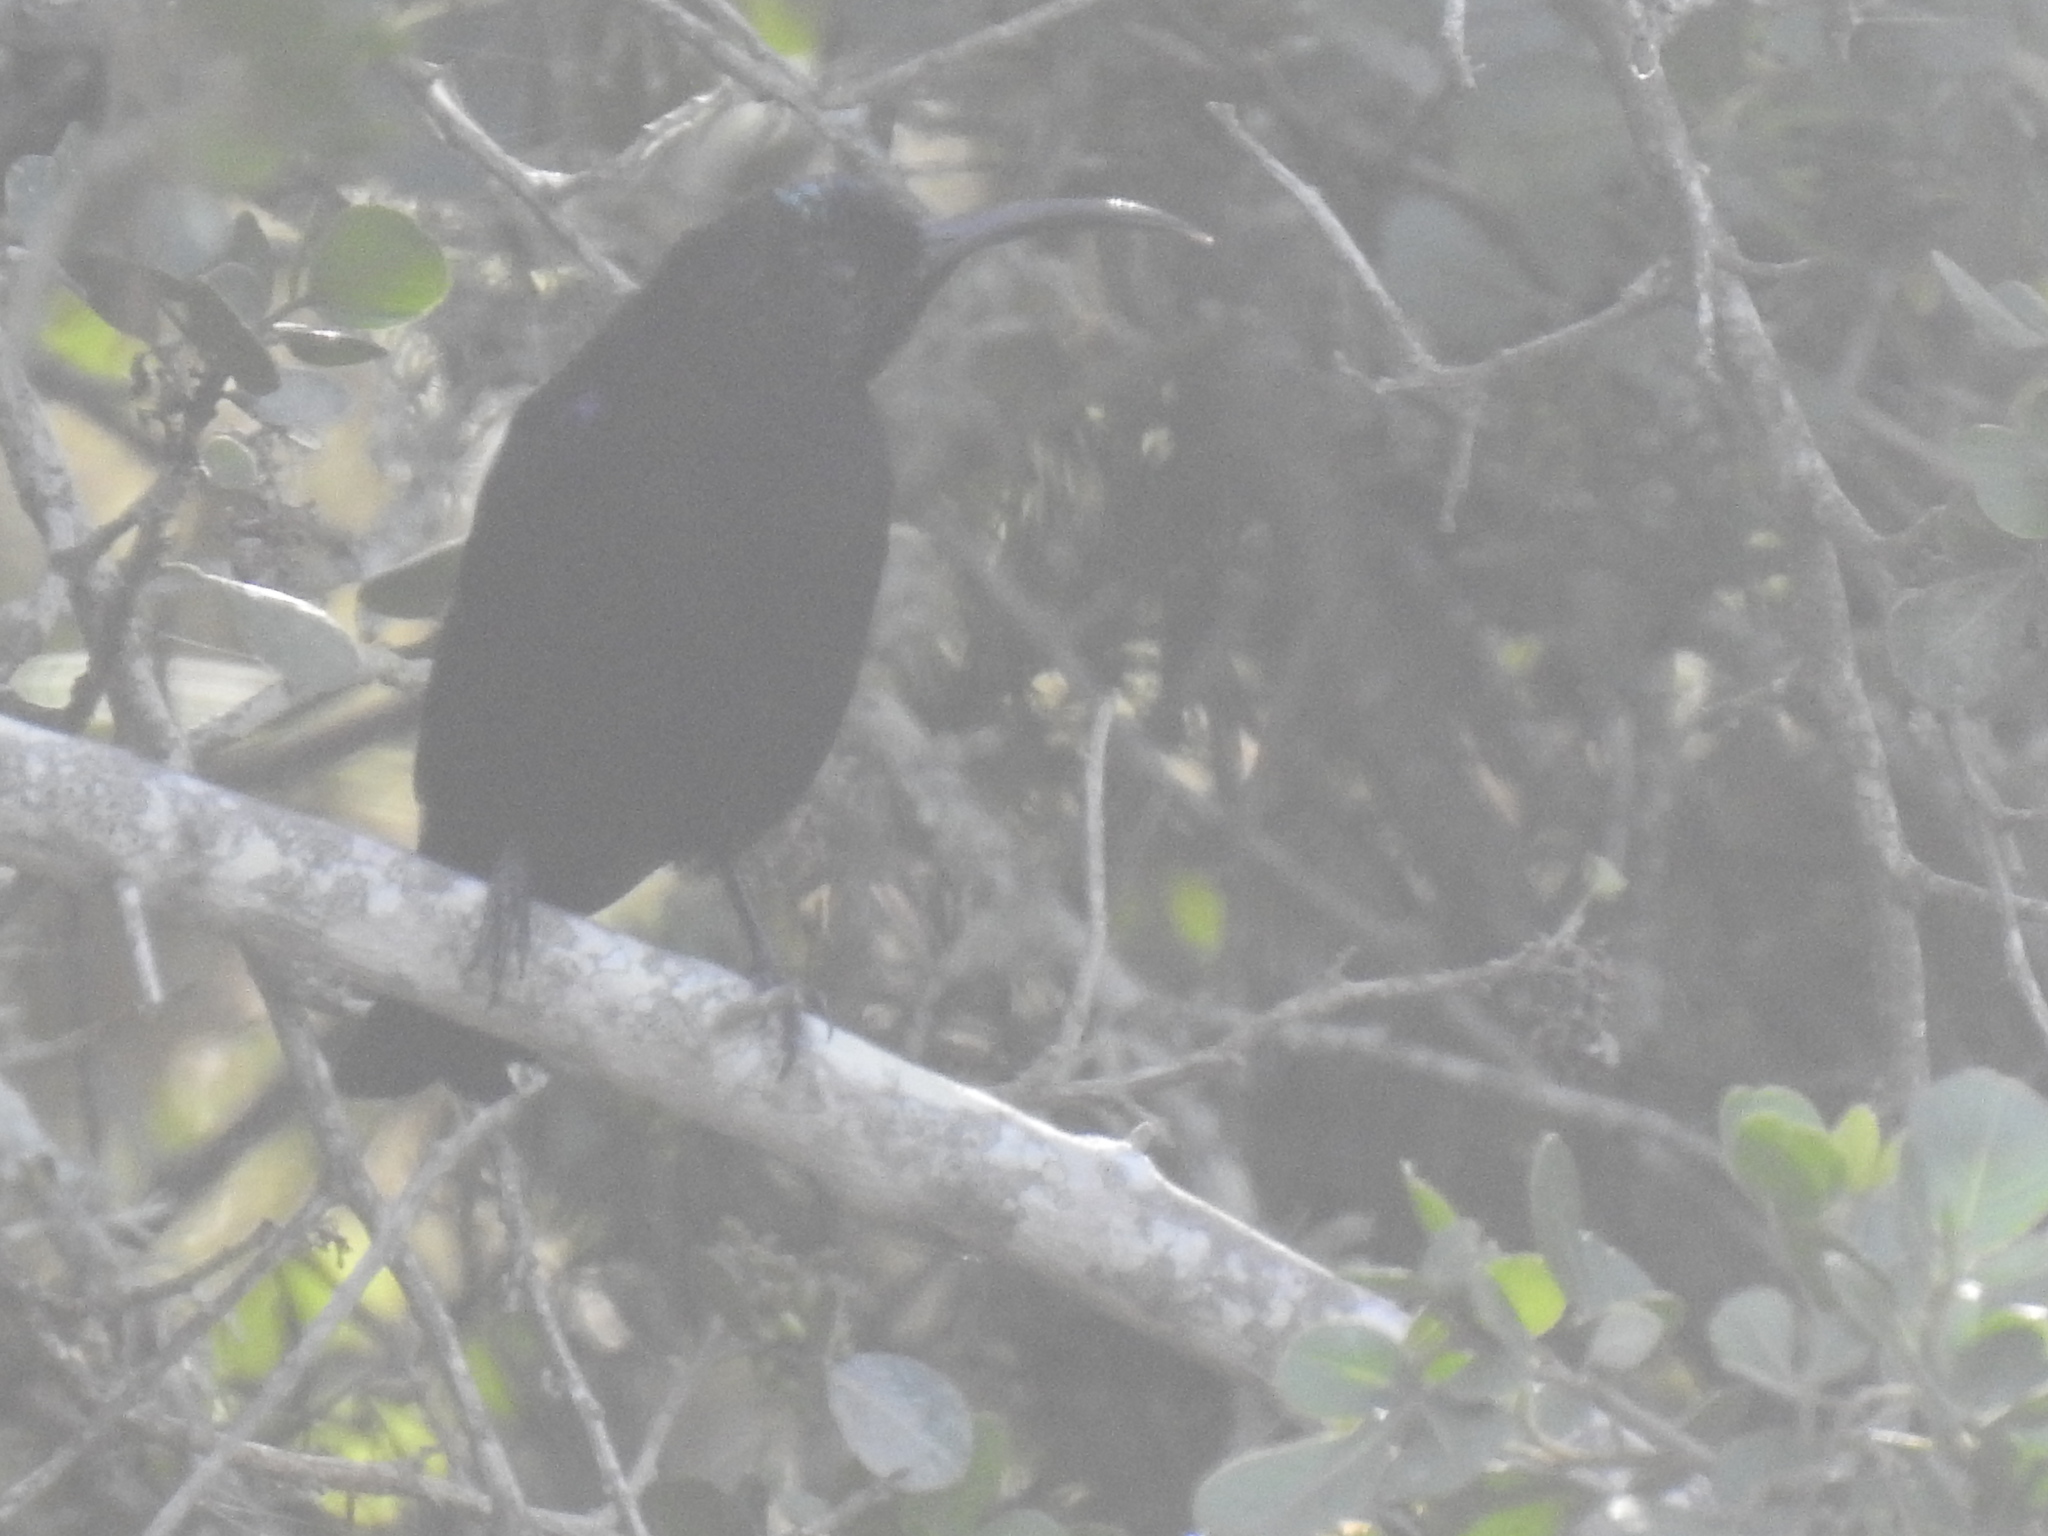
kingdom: Animalia
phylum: Chordata
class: Aves
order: Passeriformes
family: Nectariniidae
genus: Chalcomitra
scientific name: Chalcomitra amethystina
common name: Amethyst sunbird
